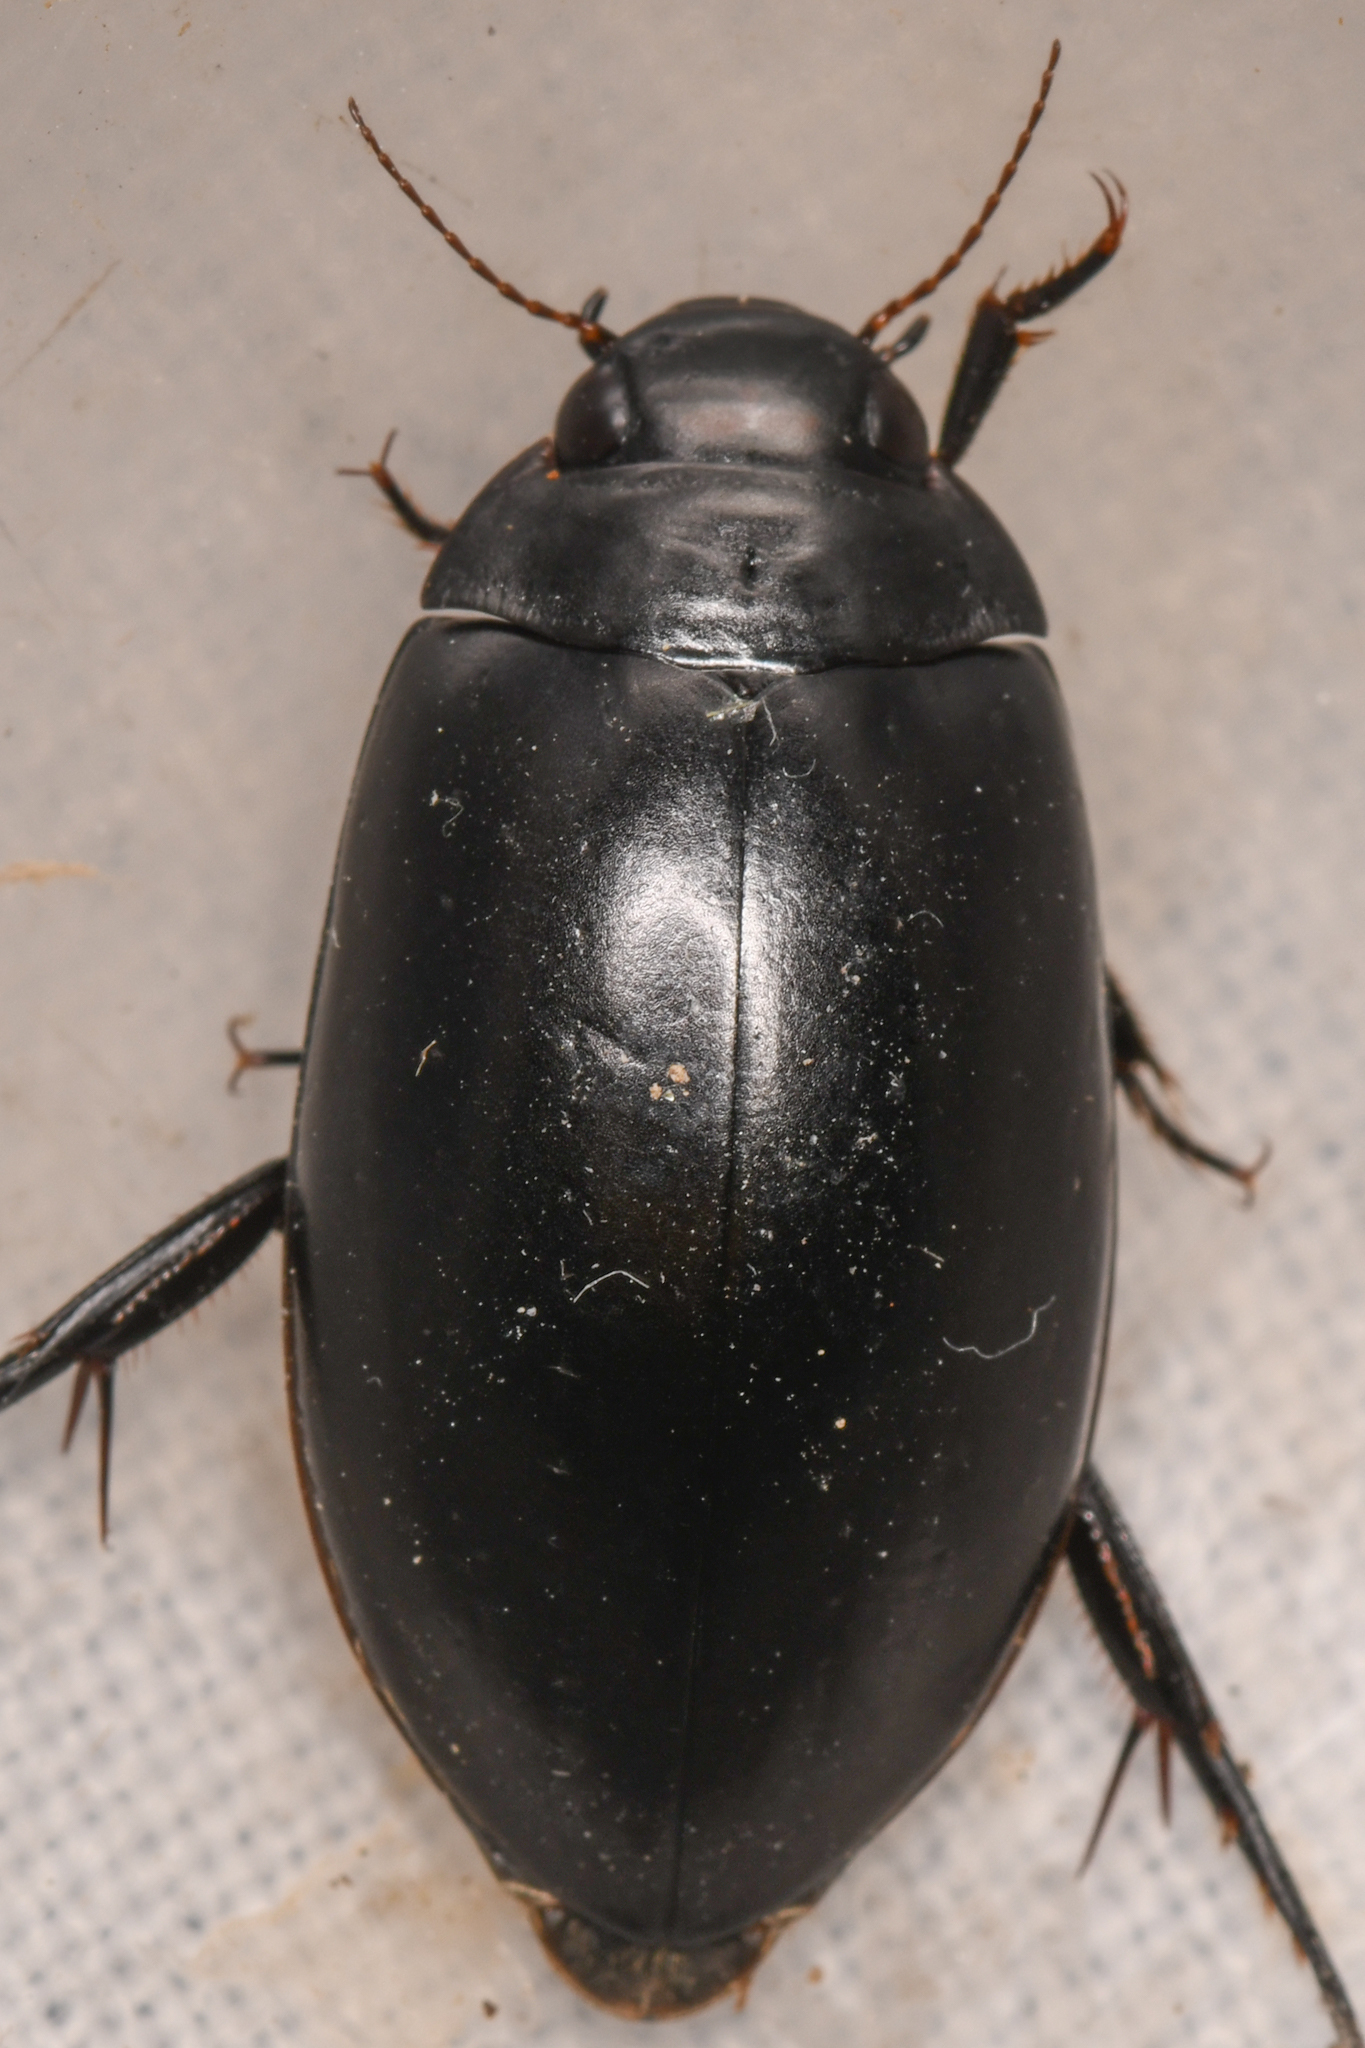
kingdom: Animalia
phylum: Arthropoda
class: Insecta
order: Coleoptera
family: Dytiscidae
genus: Rhantus
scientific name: Rhantus atricolor
